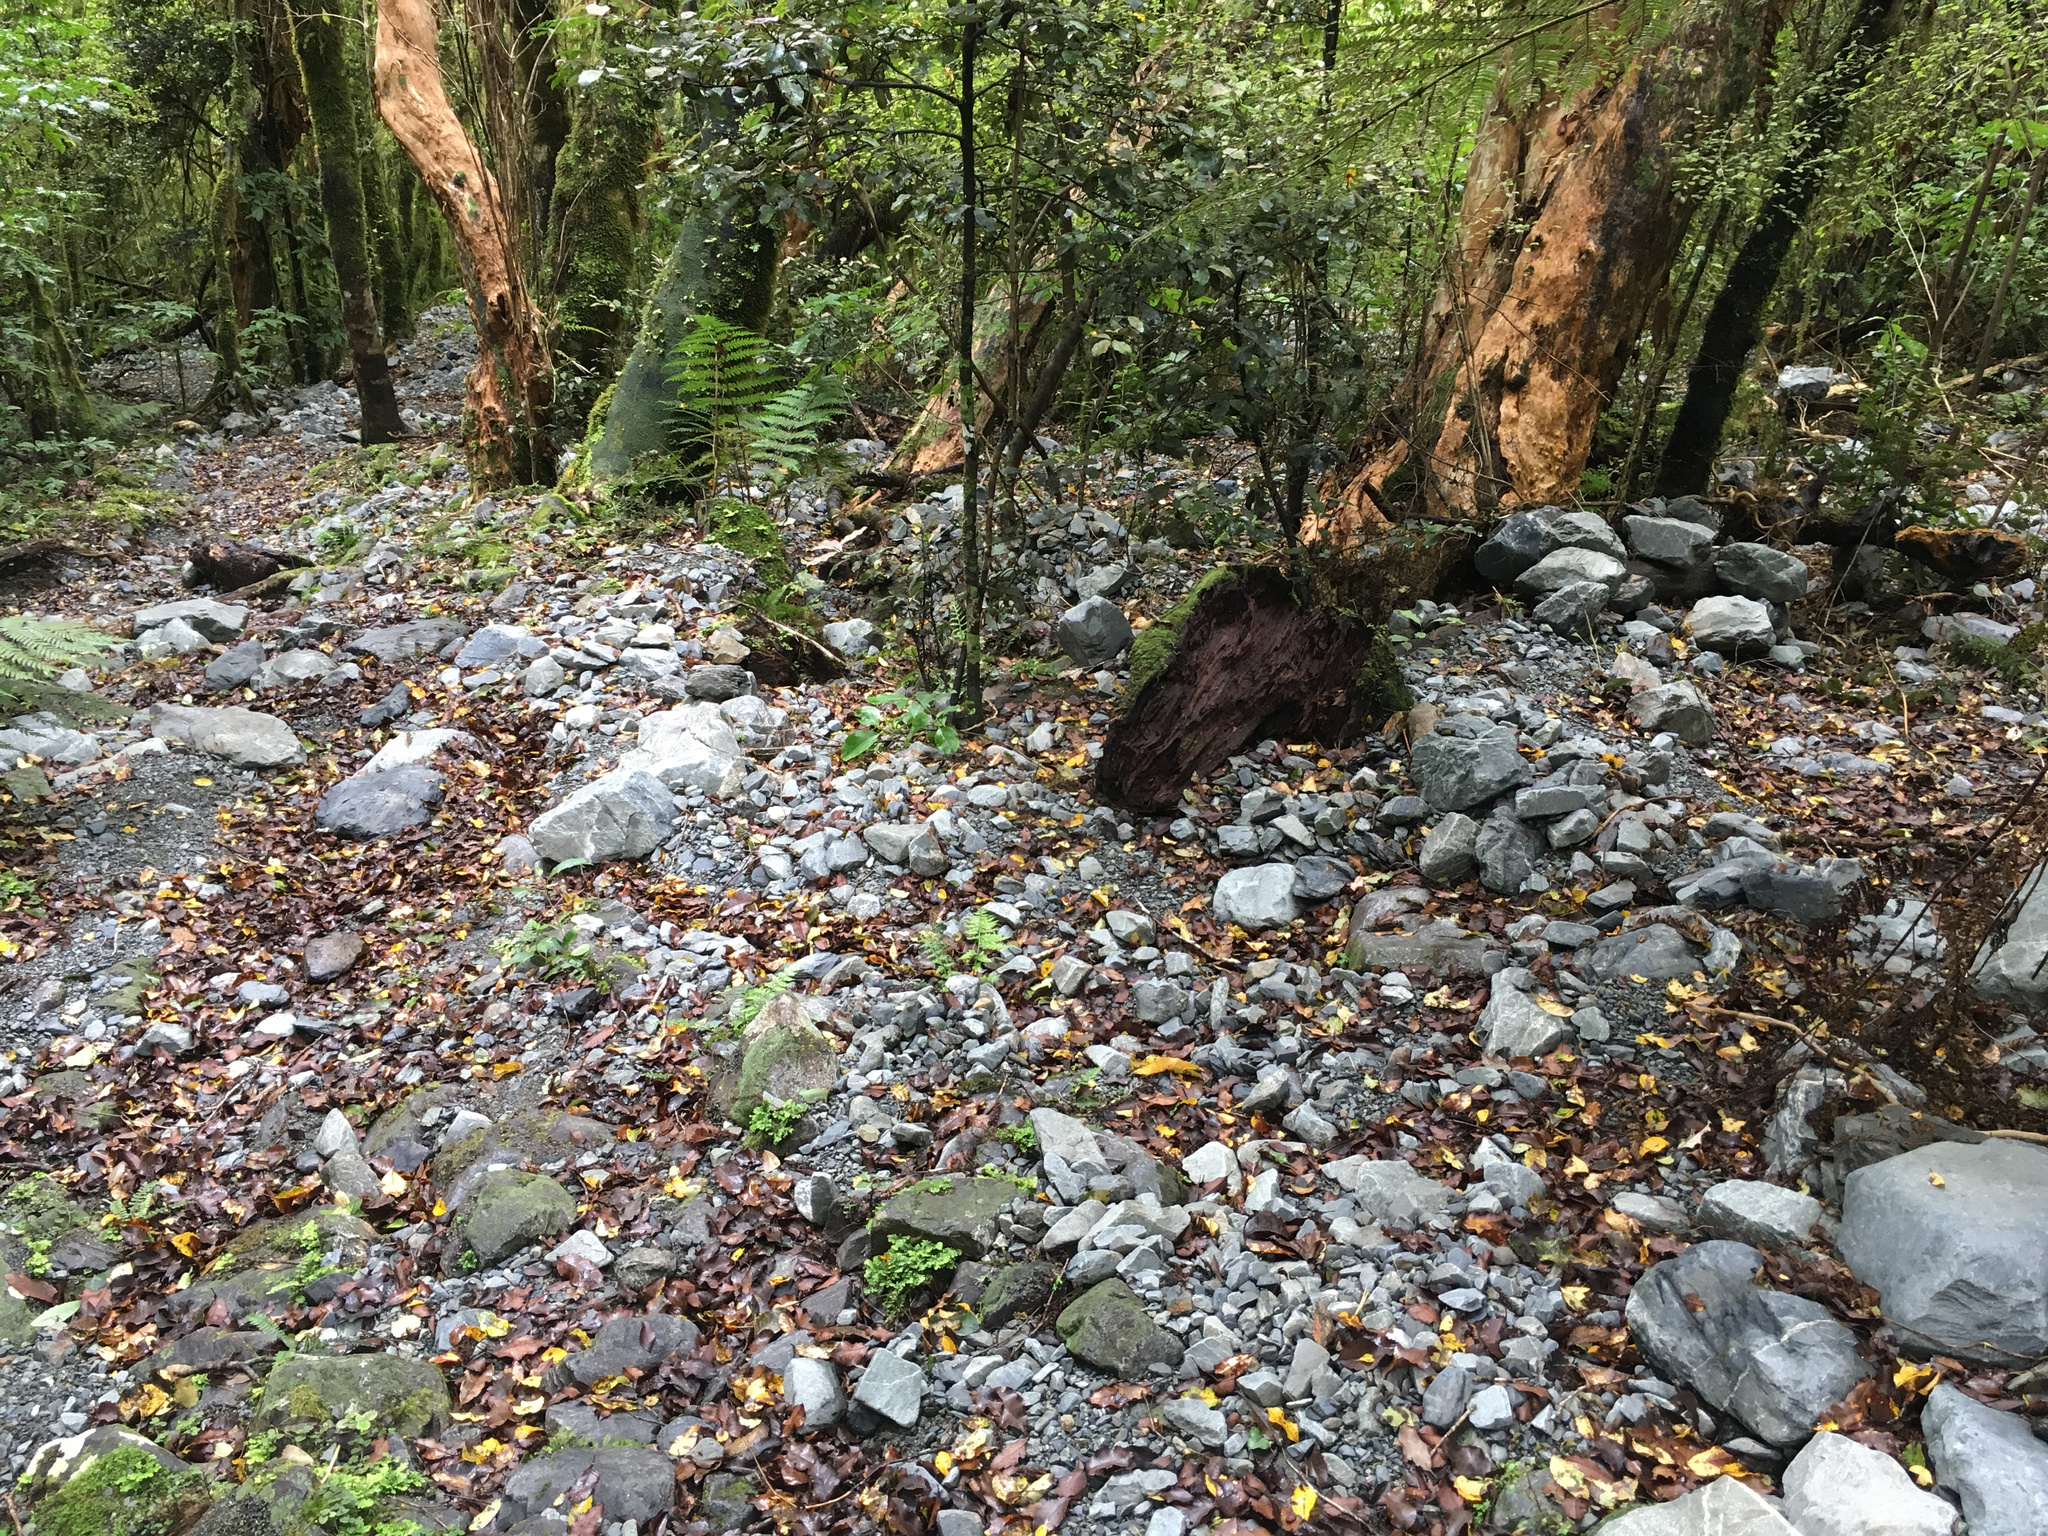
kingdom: Plantae
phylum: Tracheophyta
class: Magnoliopsida
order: Myrtales
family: Onagraceae
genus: Fuchsia
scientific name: Fuchsia excorticata
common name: Tree fuchsia
